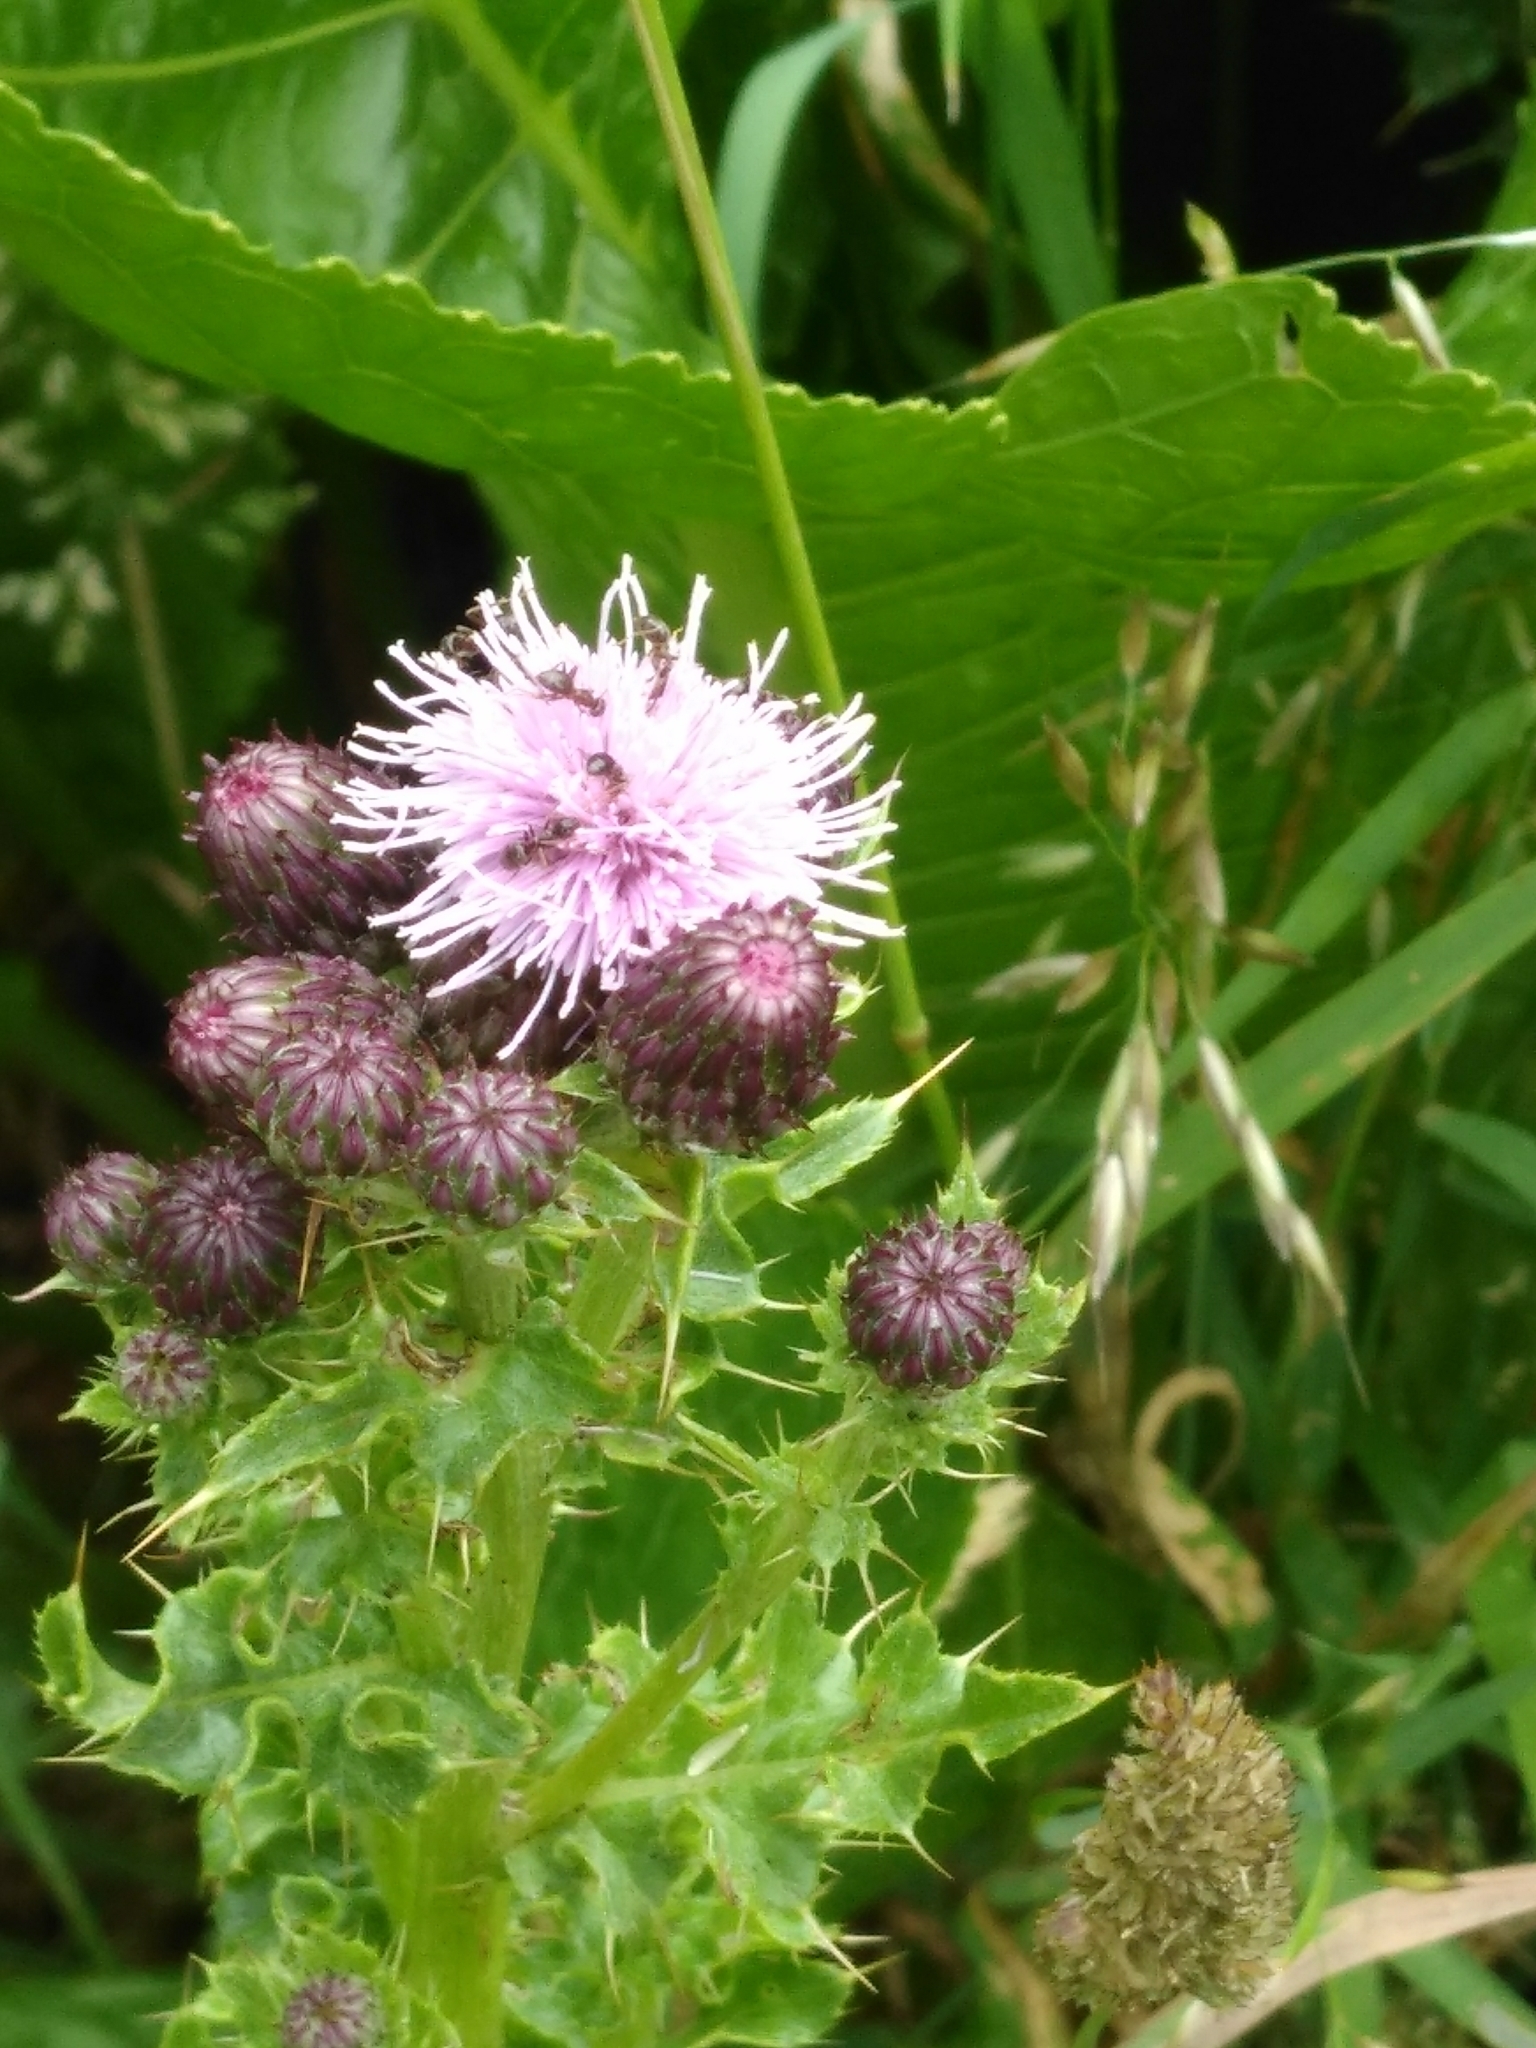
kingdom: Plantae
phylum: Tracheophyta
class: Magnoliopsida
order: Asterales
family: Asteraceae
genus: Cirsium
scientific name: Cirsium arvense
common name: Creeping thistle
